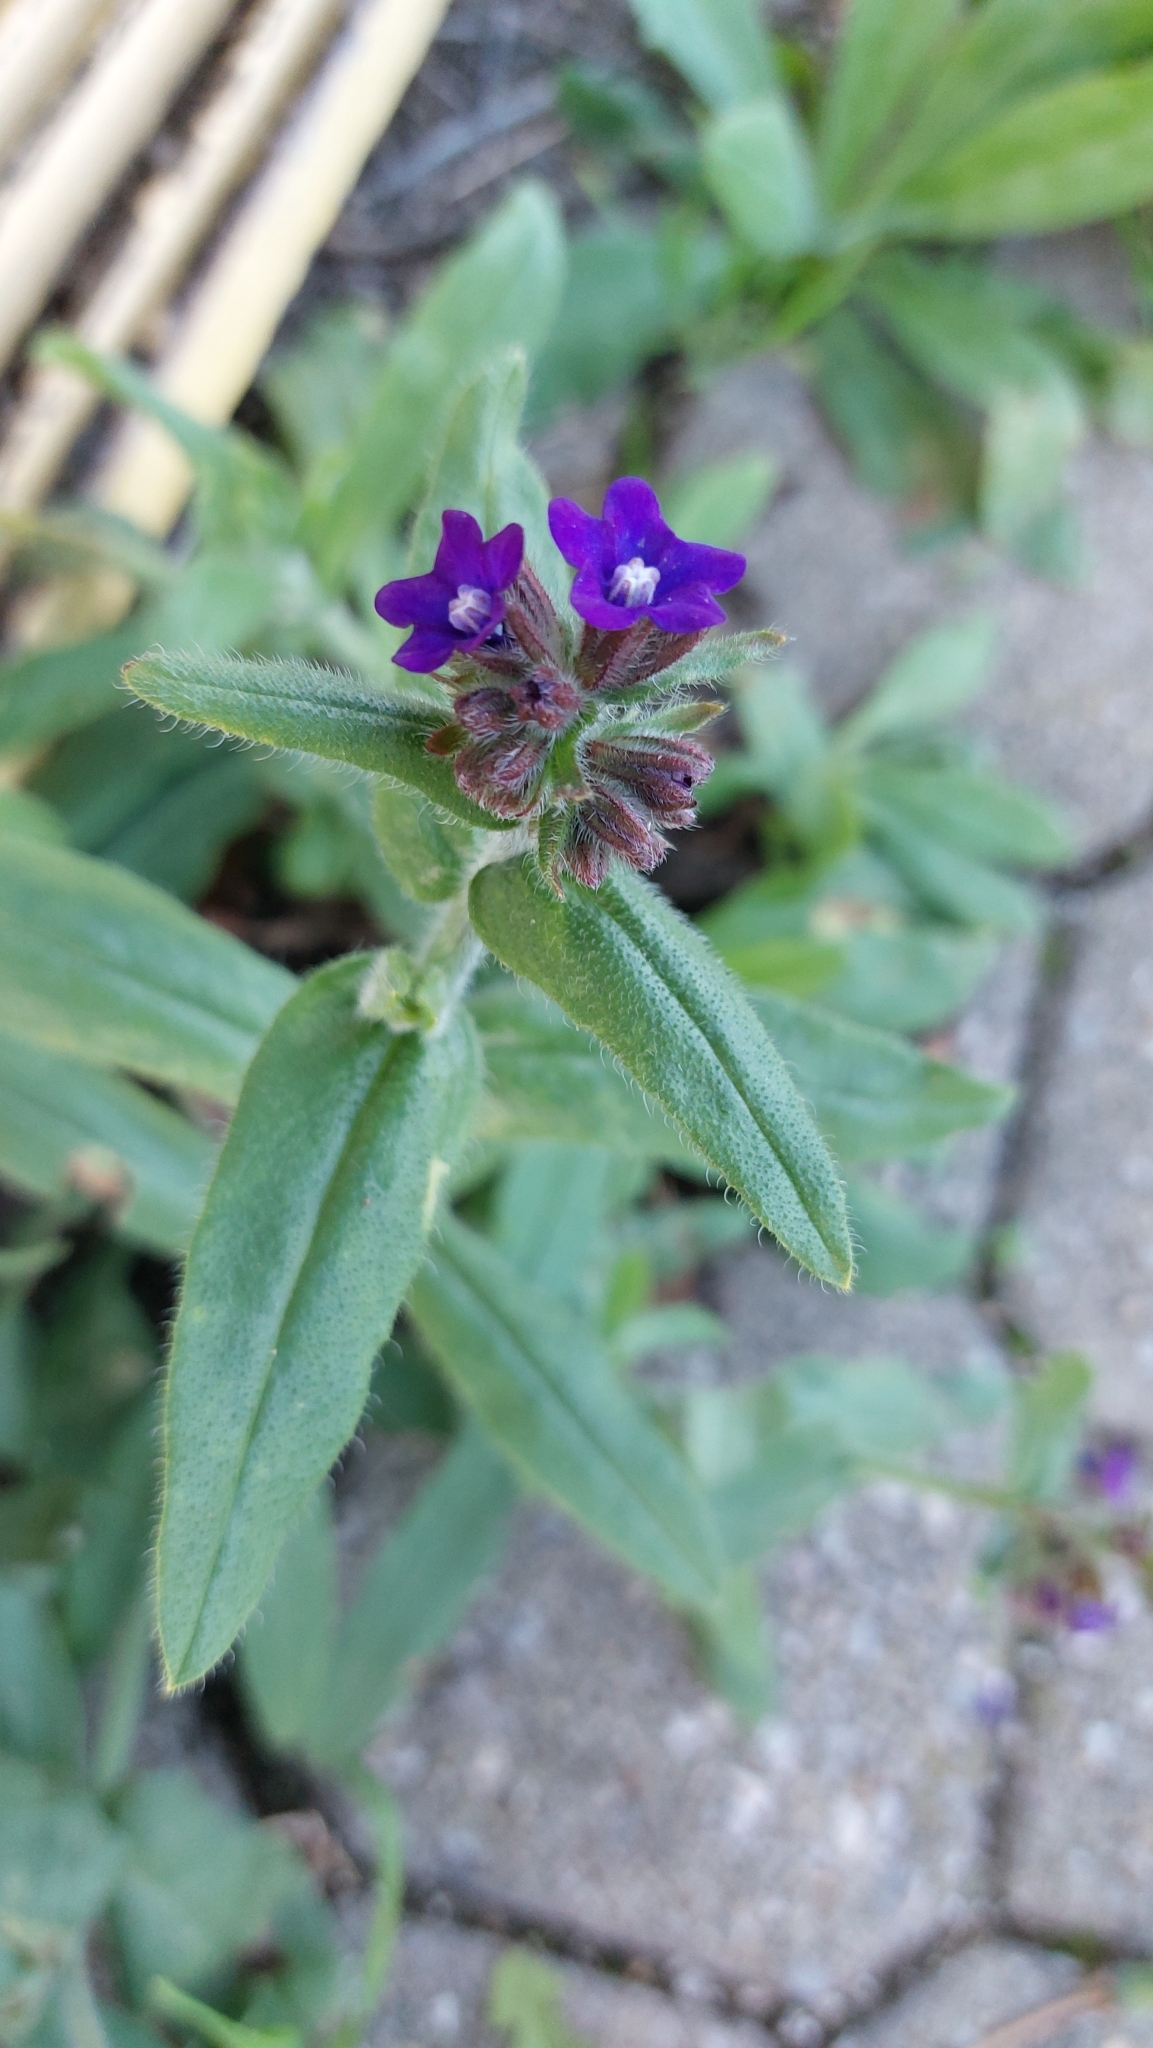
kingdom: Plantae
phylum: Tracheophyta
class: Magnoliopsida
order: Boraginales
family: Boraginaceae
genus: Anchusa
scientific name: Anchusa officinalis
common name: Alkanet
